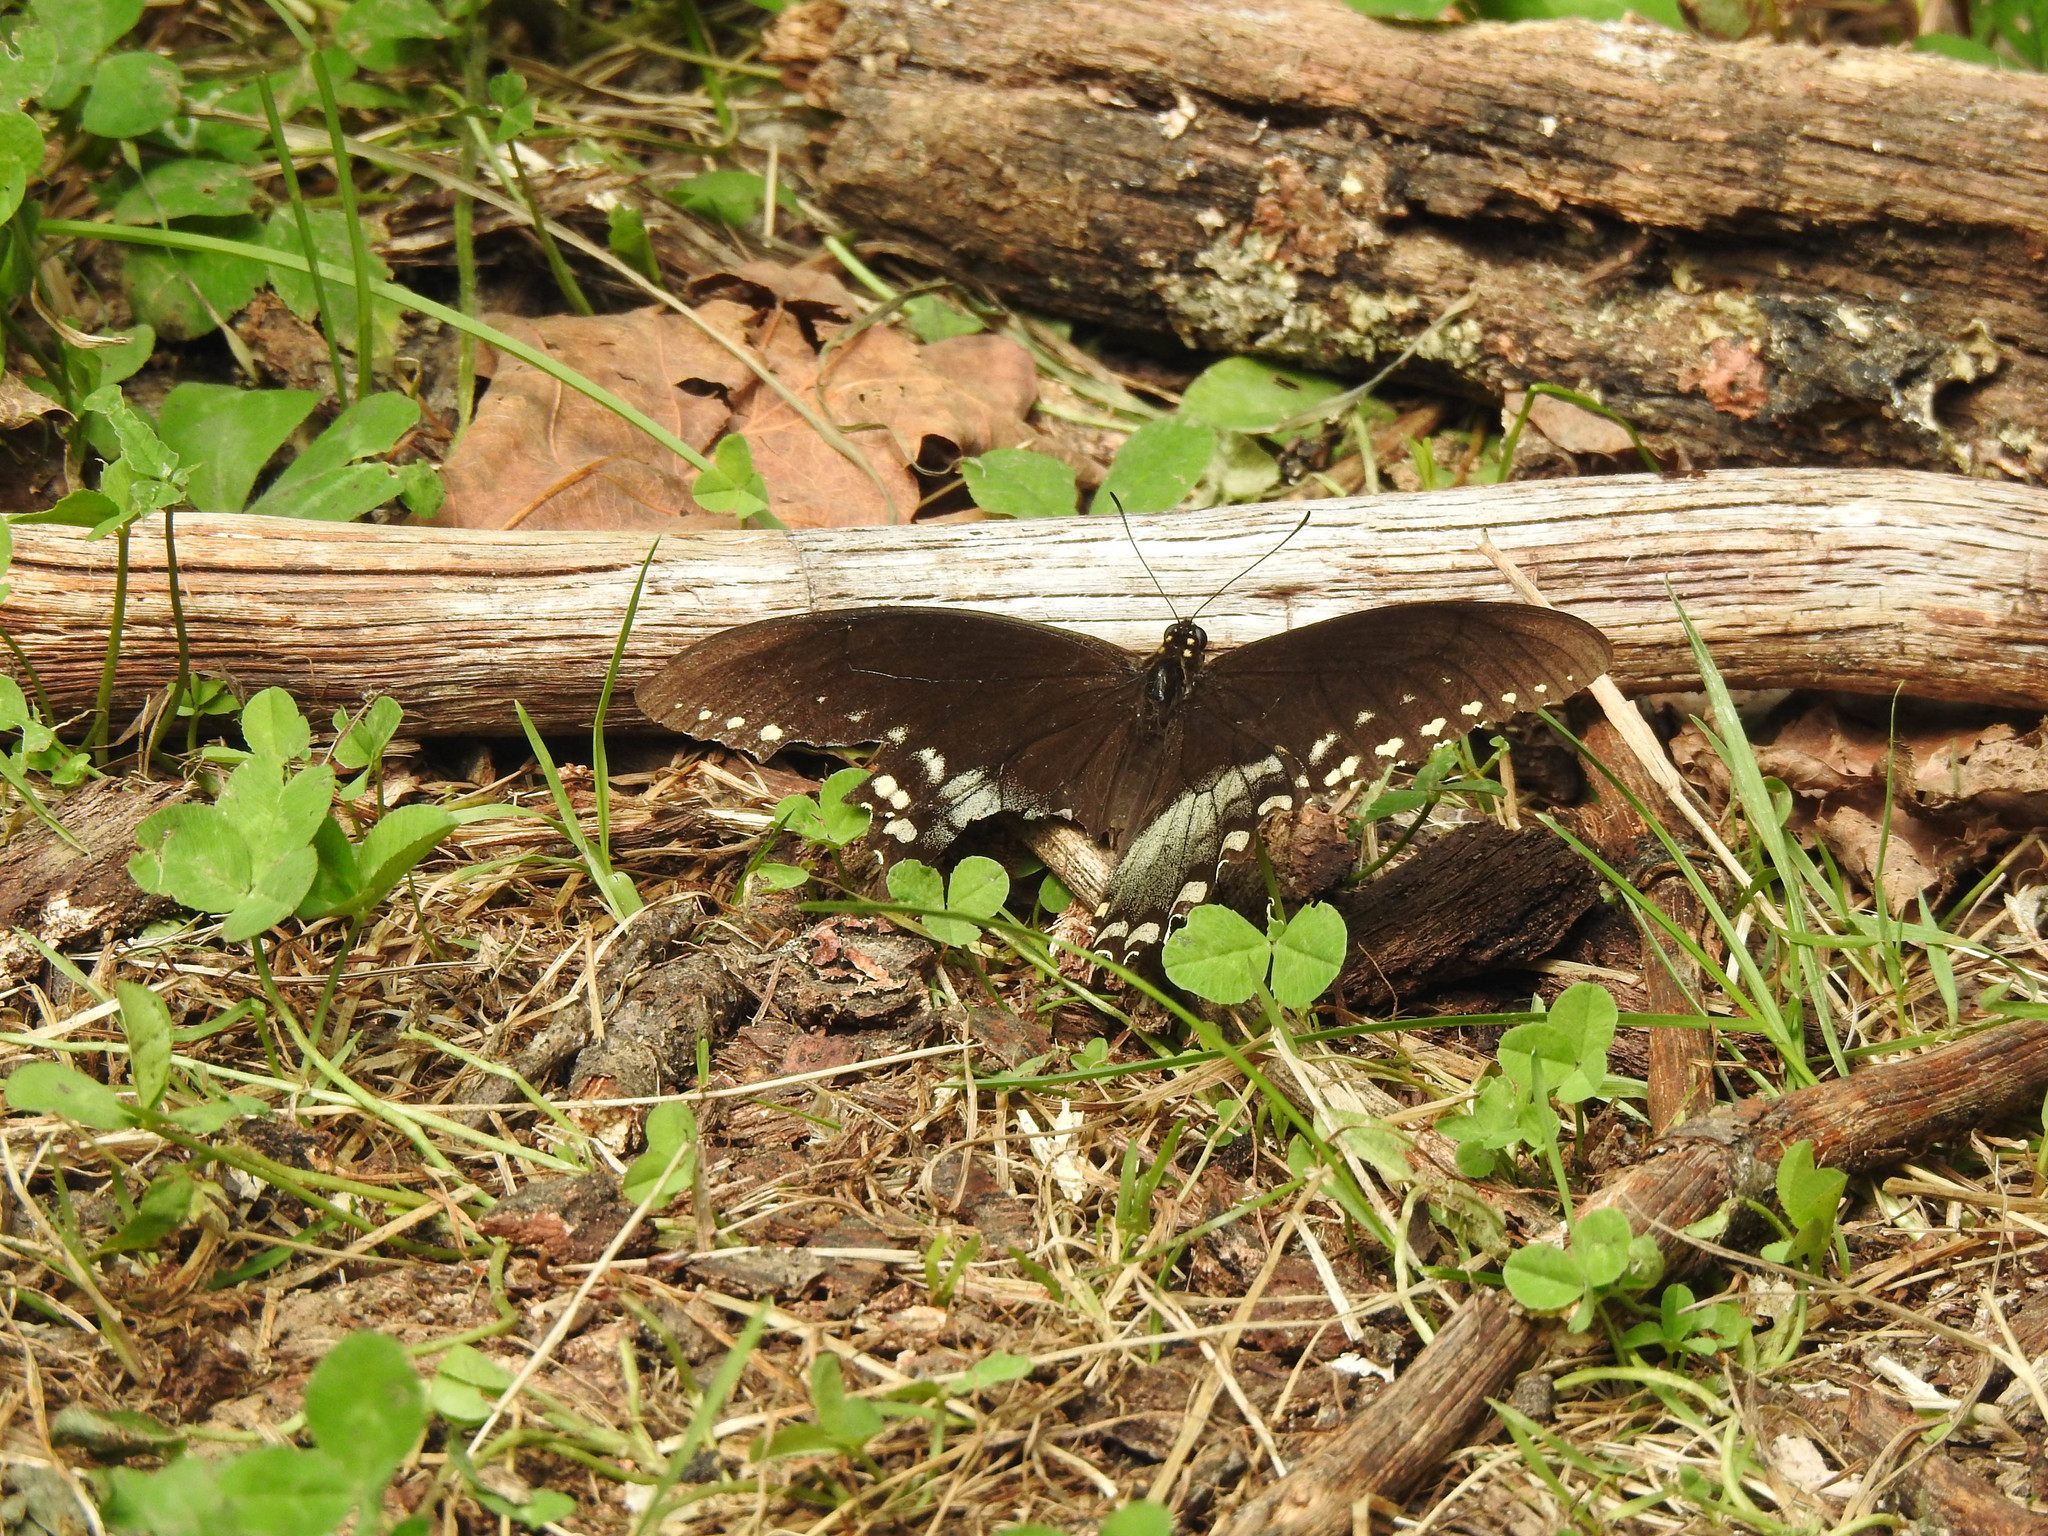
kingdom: Animalia
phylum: Arthropoda
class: Insecta
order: Lepidoptera
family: Papilionidae
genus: Papilio
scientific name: Papilio troilus
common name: Spicebush swallowtail
